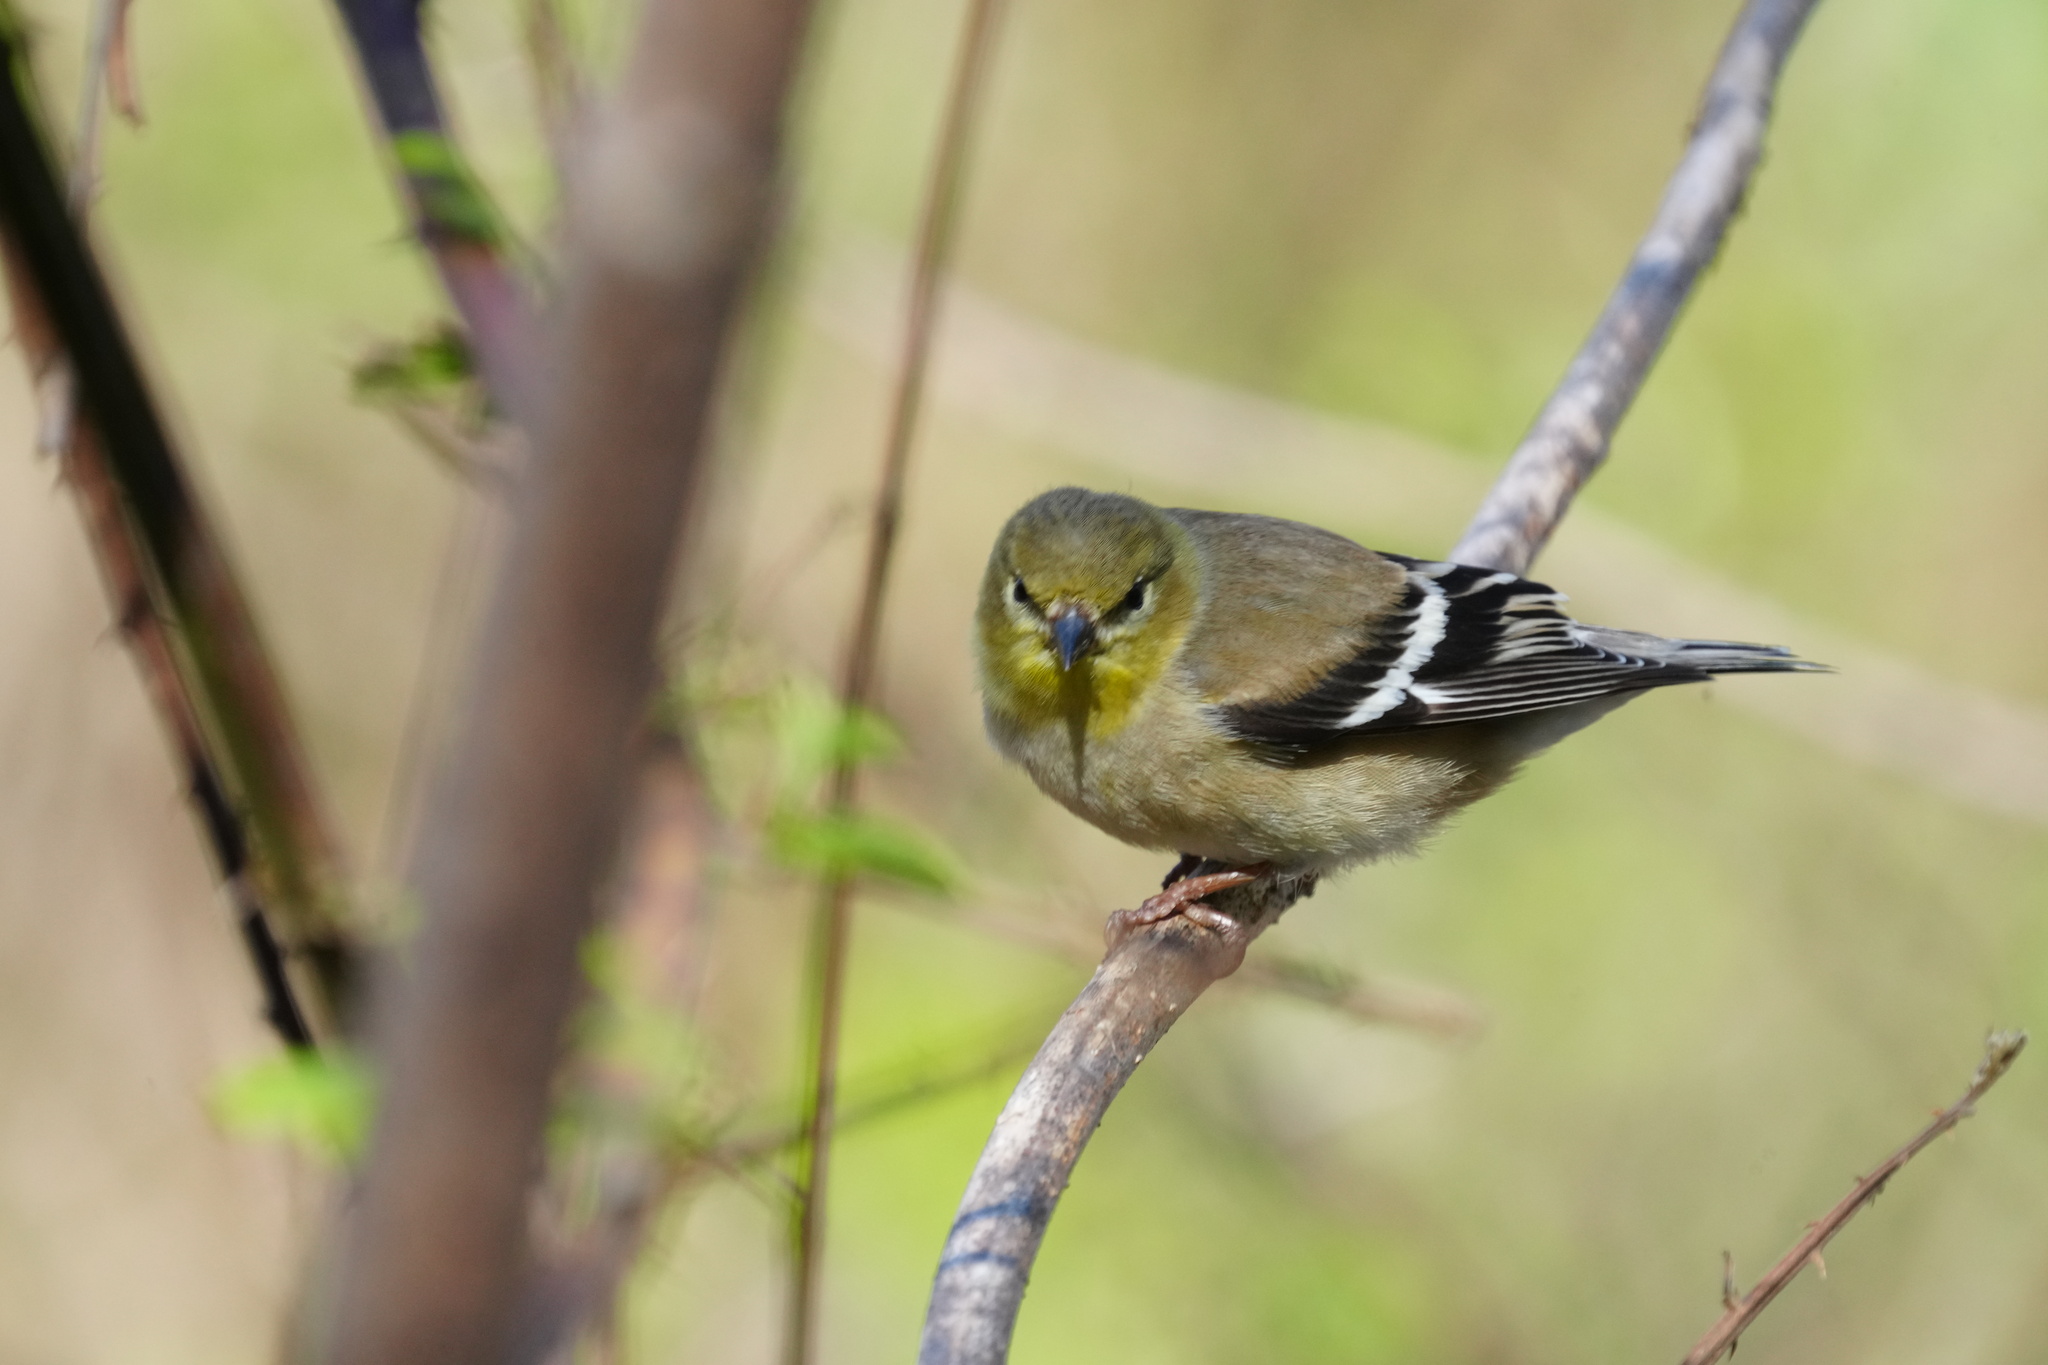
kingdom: Animalia
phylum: Chordata
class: Aves
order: Passeriformes
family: Fringillidae
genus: Spinus
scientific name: Spinus tristis
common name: American goldfinch
